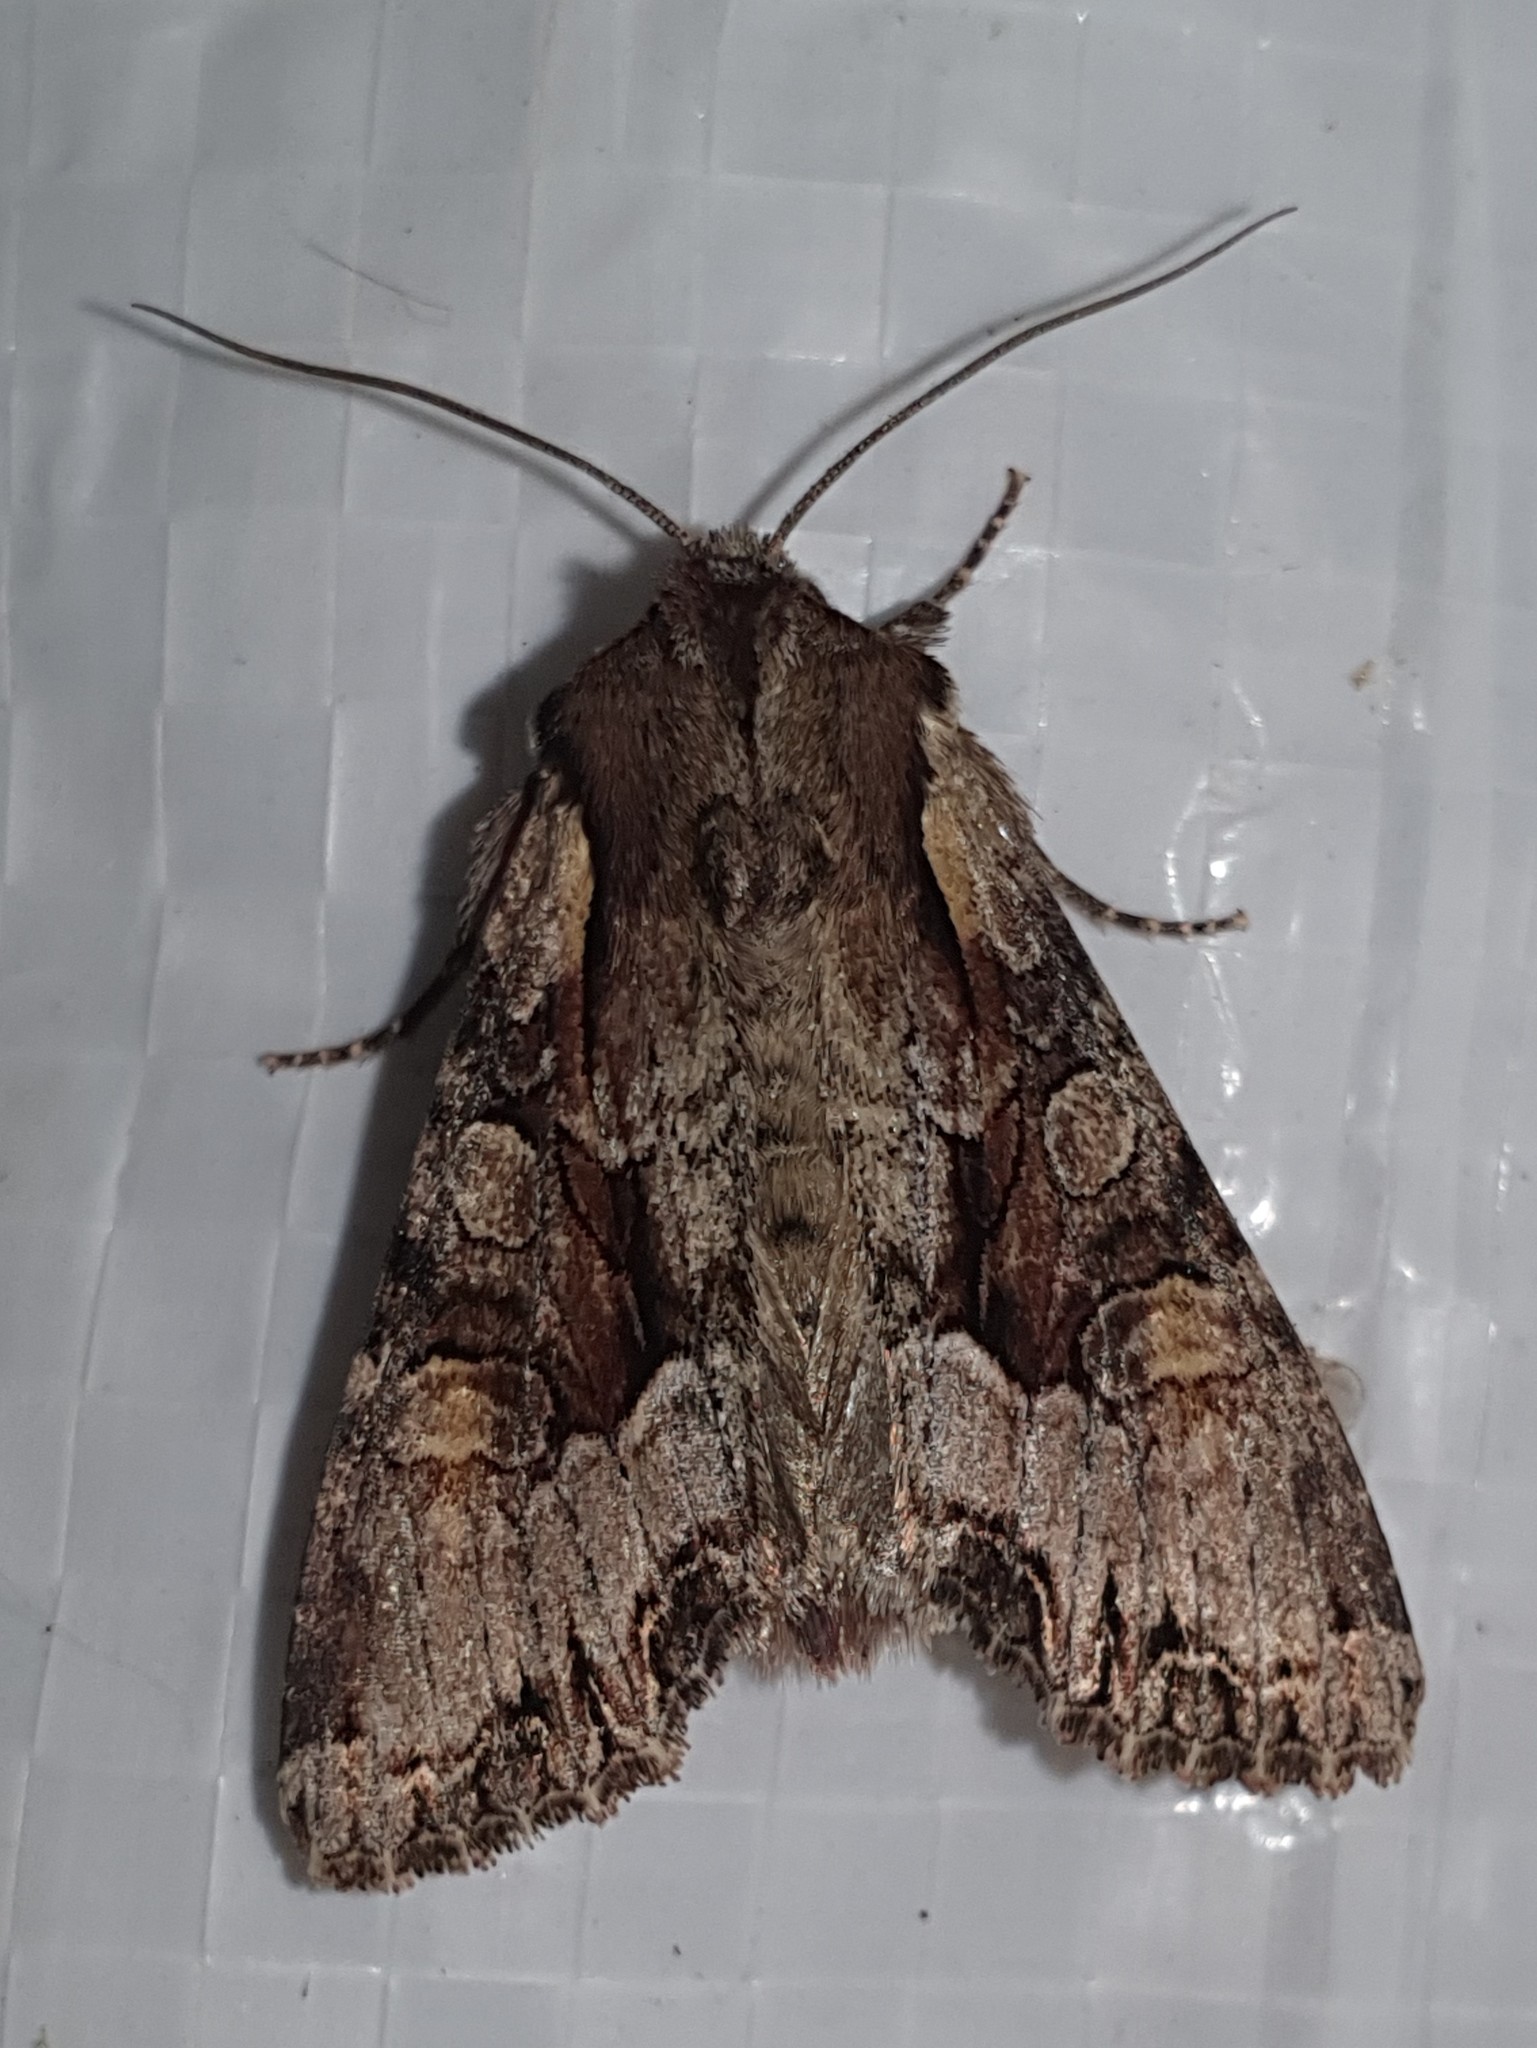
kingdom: Animalia
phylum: Arthropoda
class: Insecta
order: Lepidoptera
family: Noctuidae
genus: Lacanobia
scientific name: Lacanobia w-latinum
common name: Light brocade
